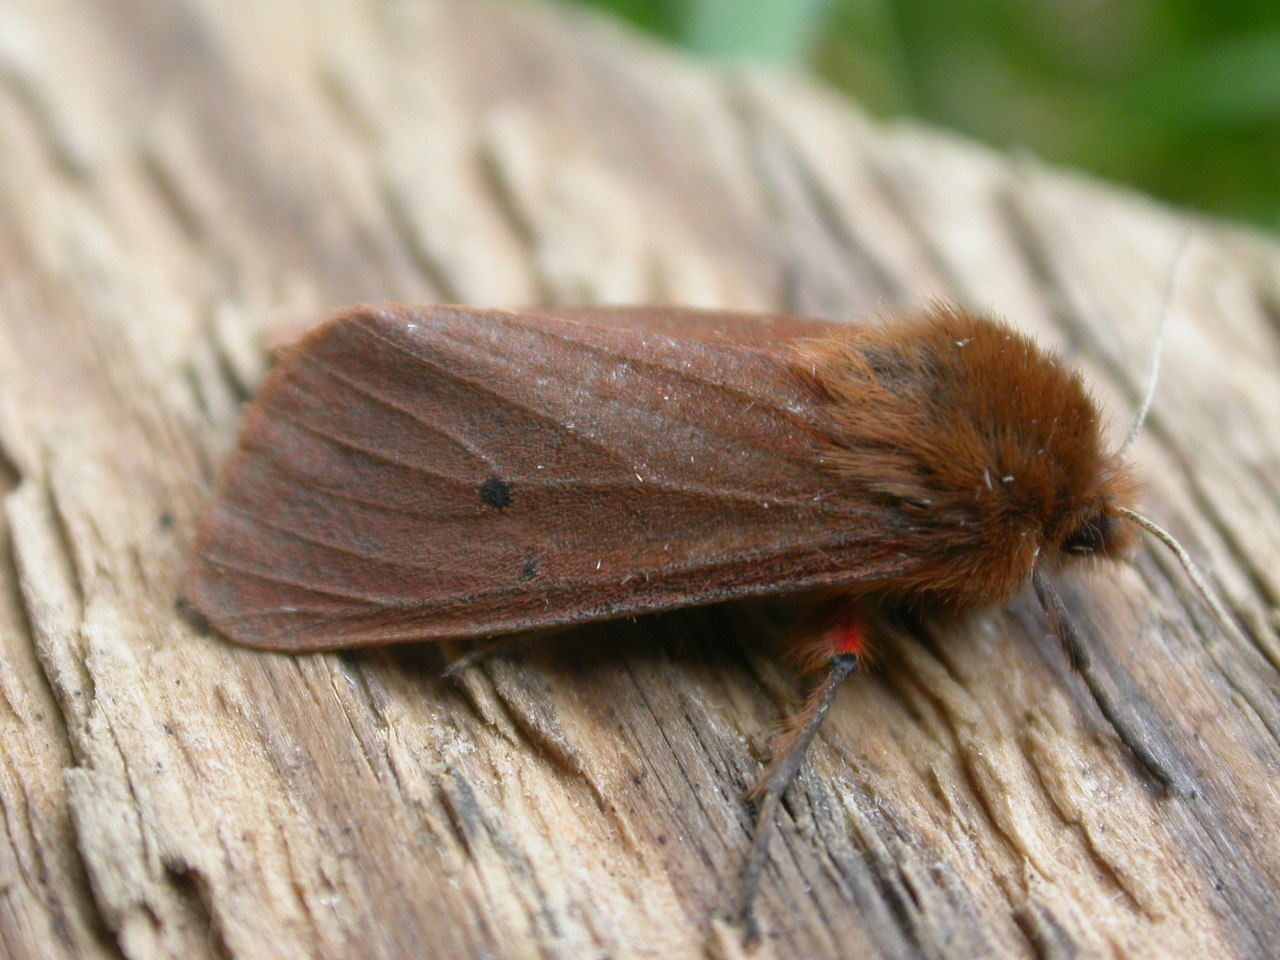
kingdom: Animalia
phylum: Arthropoda
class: Insecta
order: Lepidoptera
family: Erebidae
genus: Phragmatobia
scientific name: Phragmatobia fuliginosa
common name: Ruby tiger
